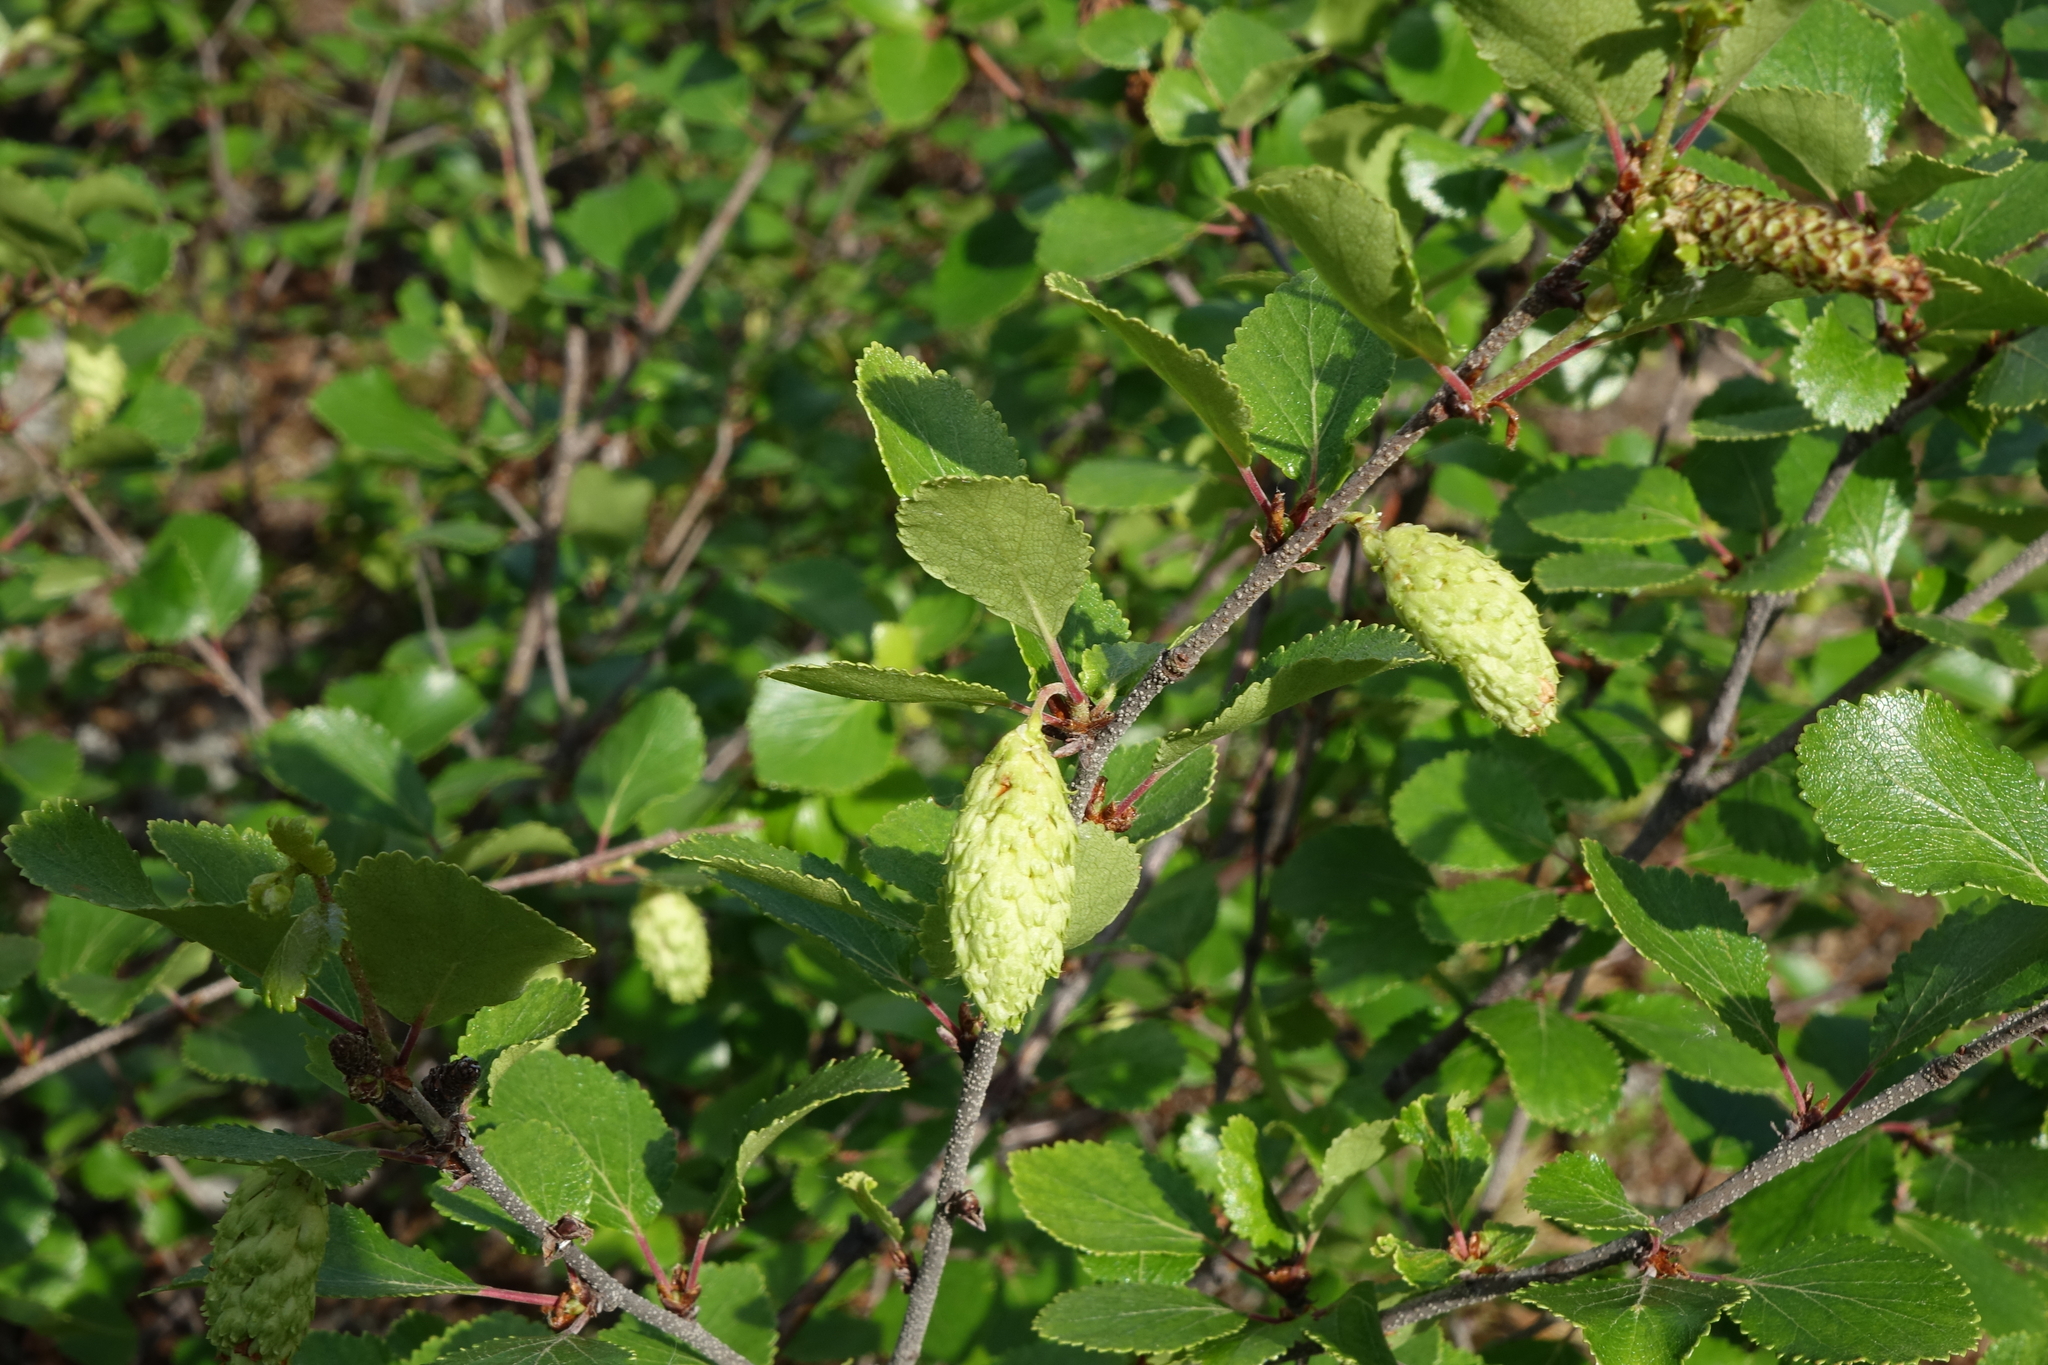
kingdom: Plantae
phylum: Tracheophyta
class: Magnoliopsida
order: Fagales
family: Betulaceae
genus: Betula
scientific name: Betula fruticosa
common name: Japanese bog birch
